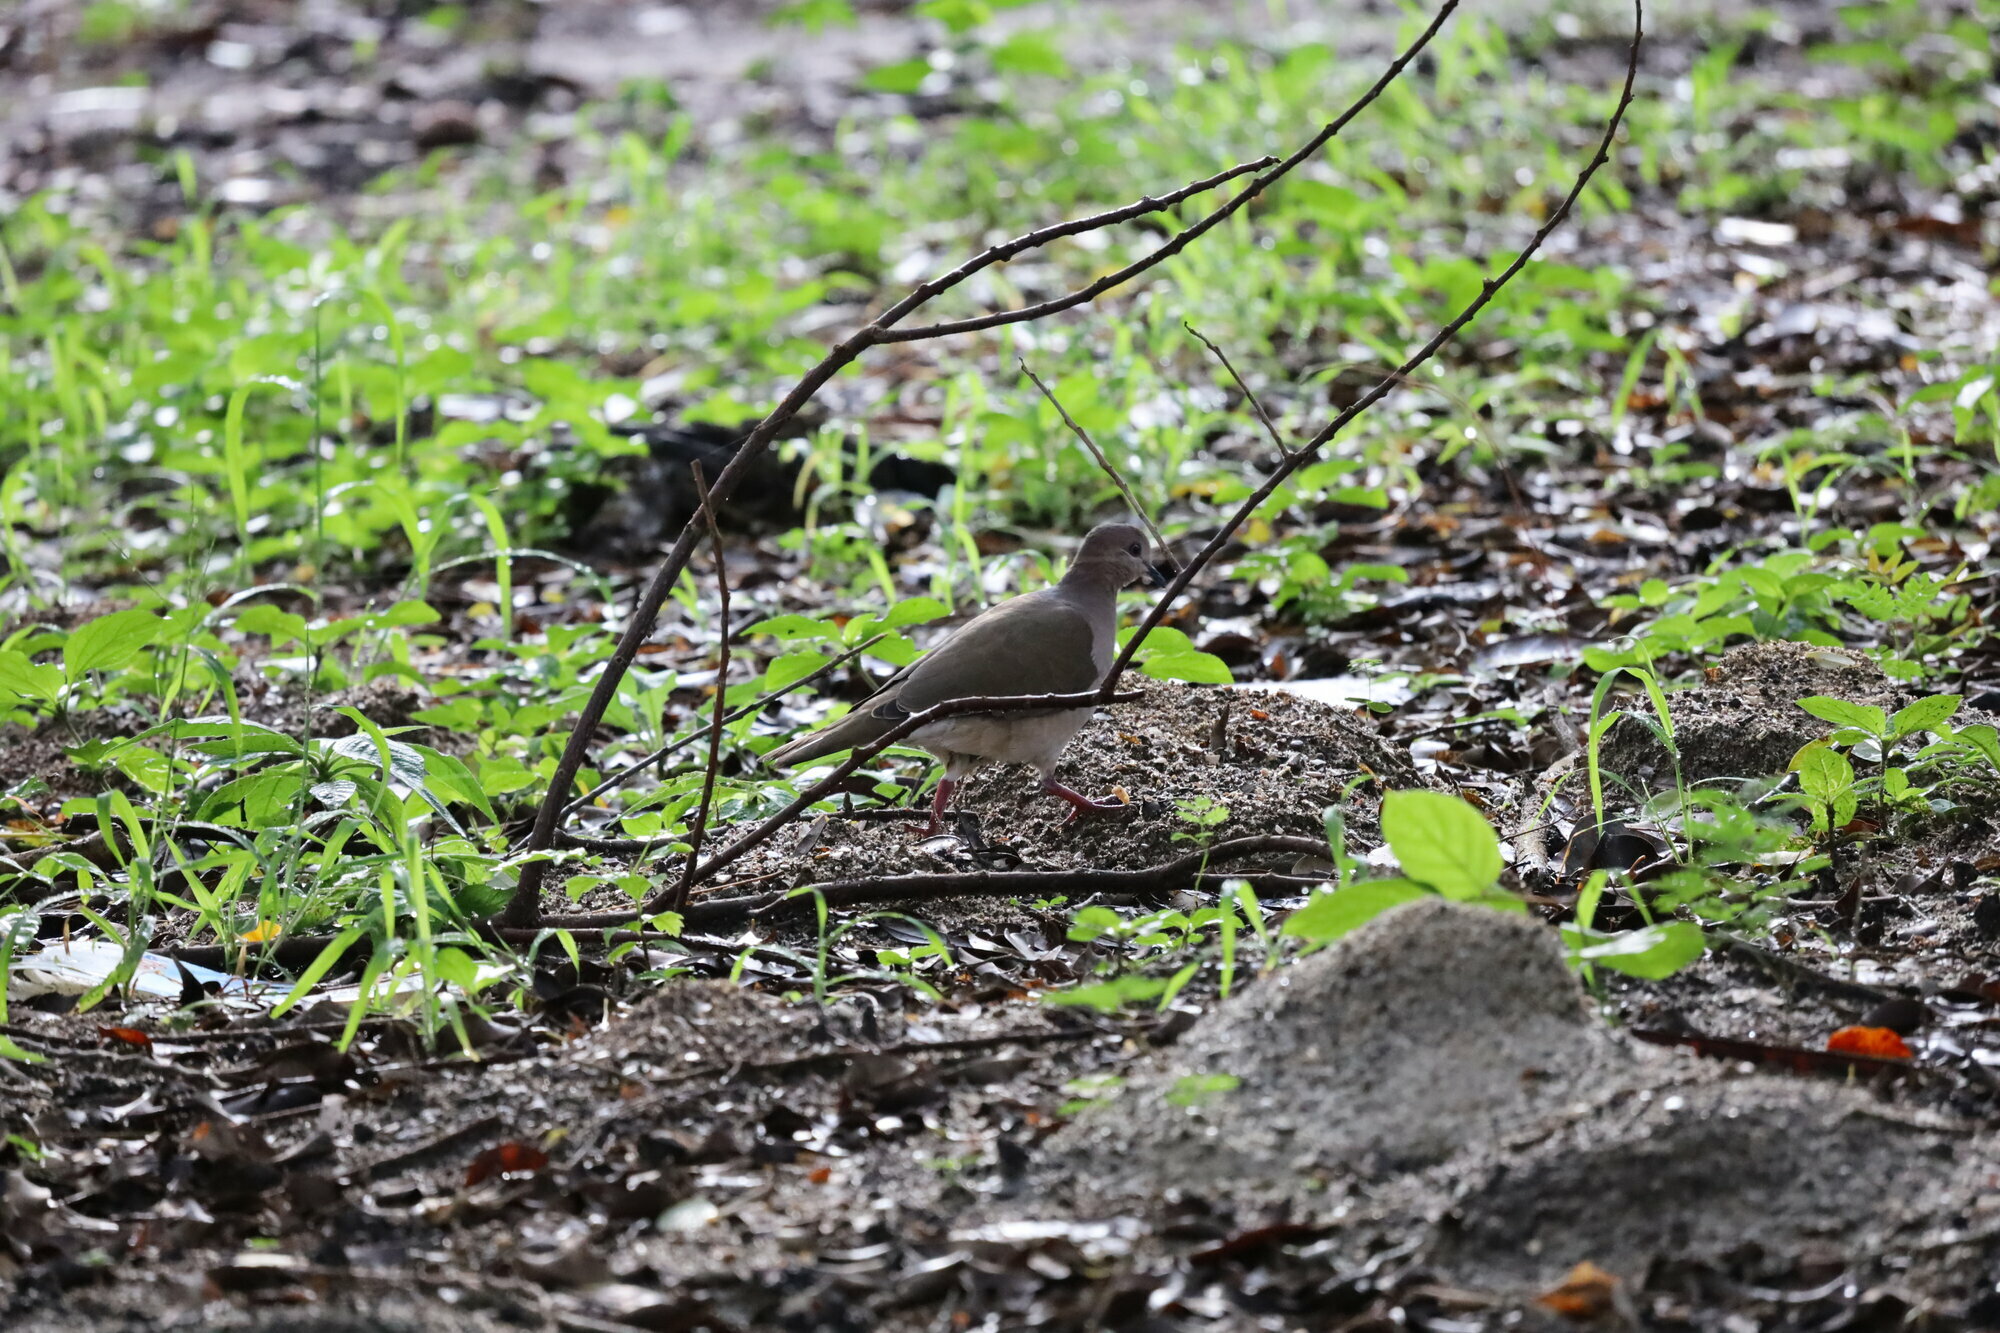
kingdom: Animalia
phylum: Chordata
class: Aves
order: Columbiformes
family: Columbidae
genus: Leptotila
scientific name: Leptotila verreauxi
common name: White-tipped dove
